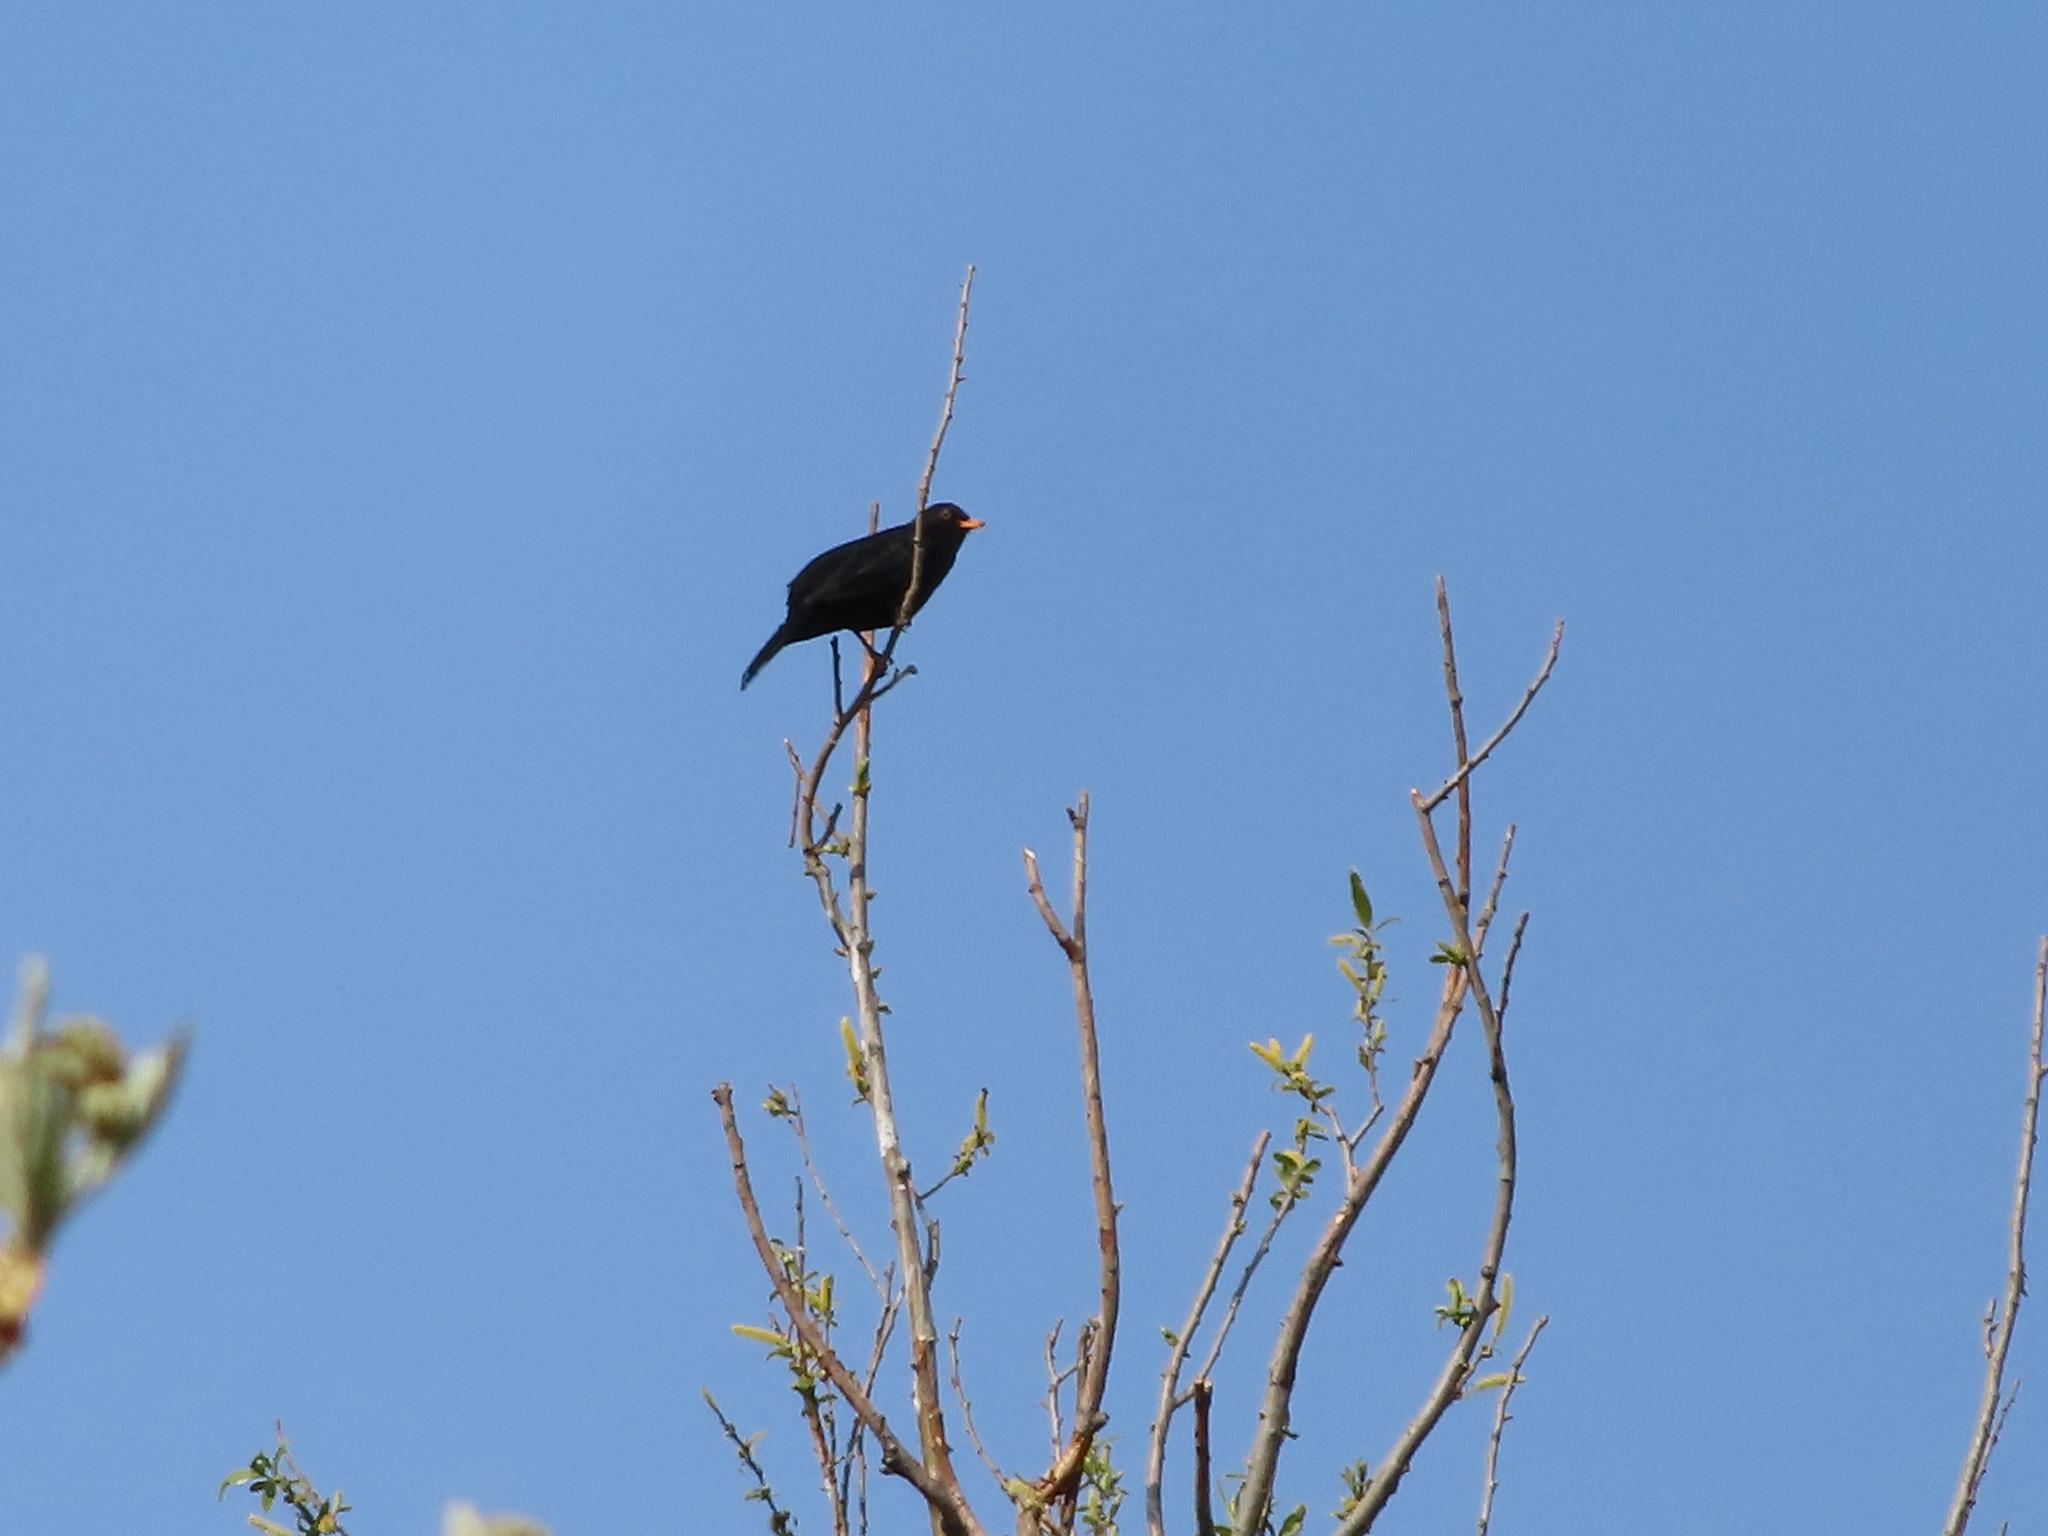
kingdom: Animalia
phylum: Chordata
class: Aves
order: Passeriformes
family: Turdidae
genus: Turdus
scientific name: Turdus merula
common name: Common blackbird
